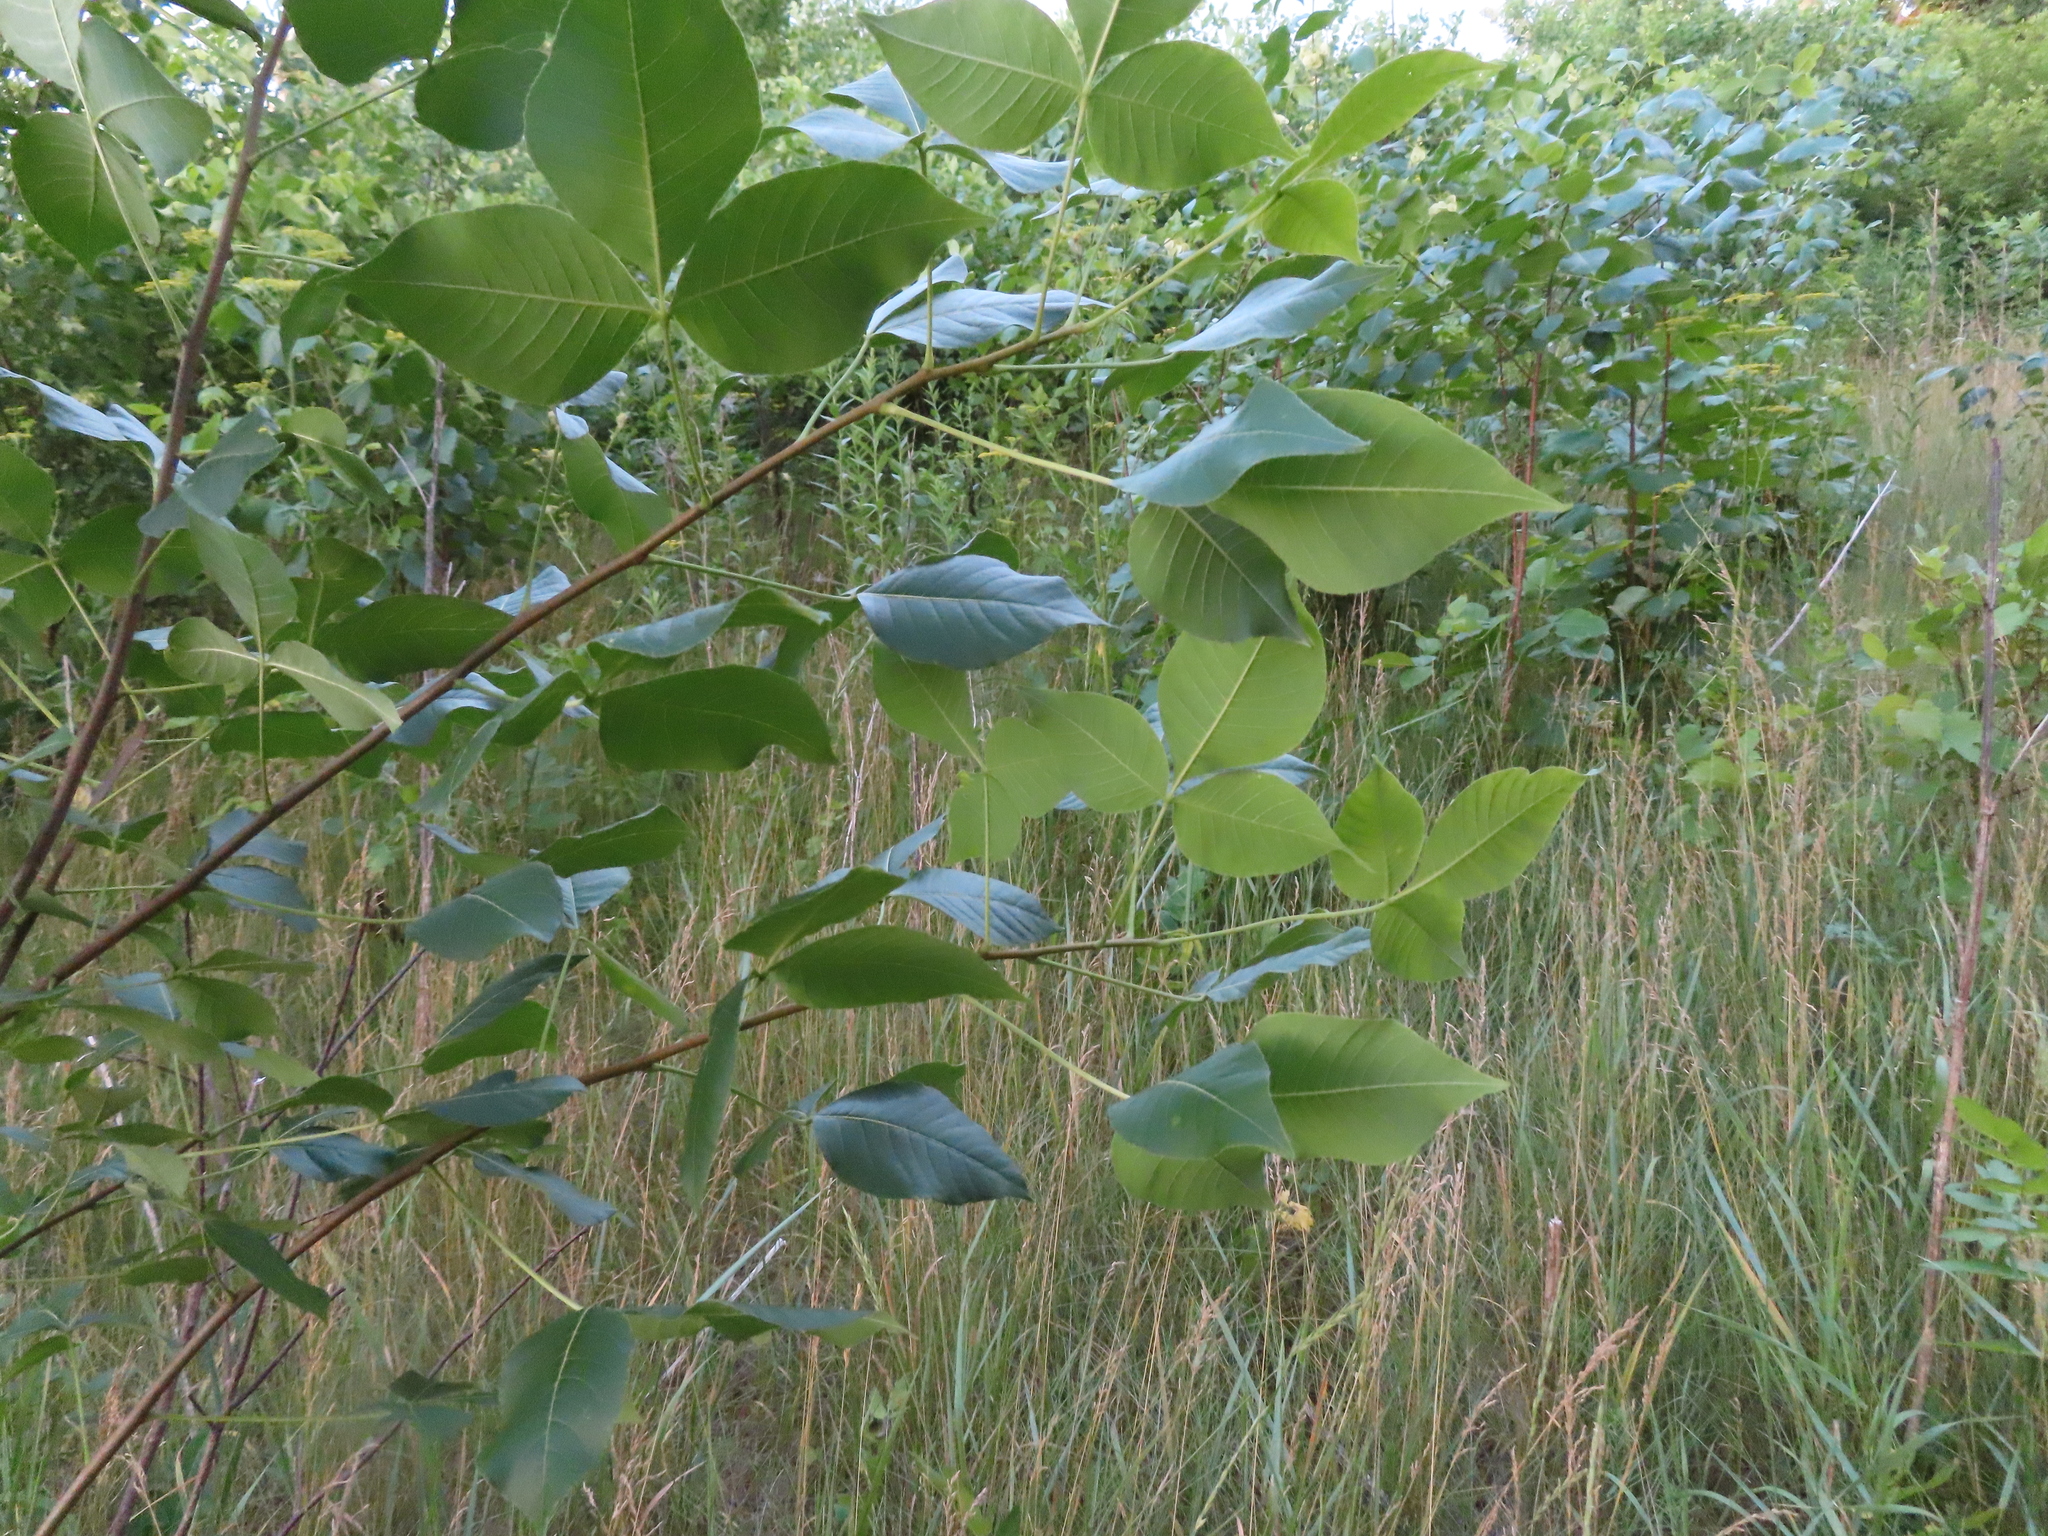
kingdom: Plantae
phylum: Tracheophyta
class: Magnoliopsida
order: Sapindales
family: Rutaceae
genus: Ptelea
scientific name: Ptelea trifoliata
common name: Common hop-tree
